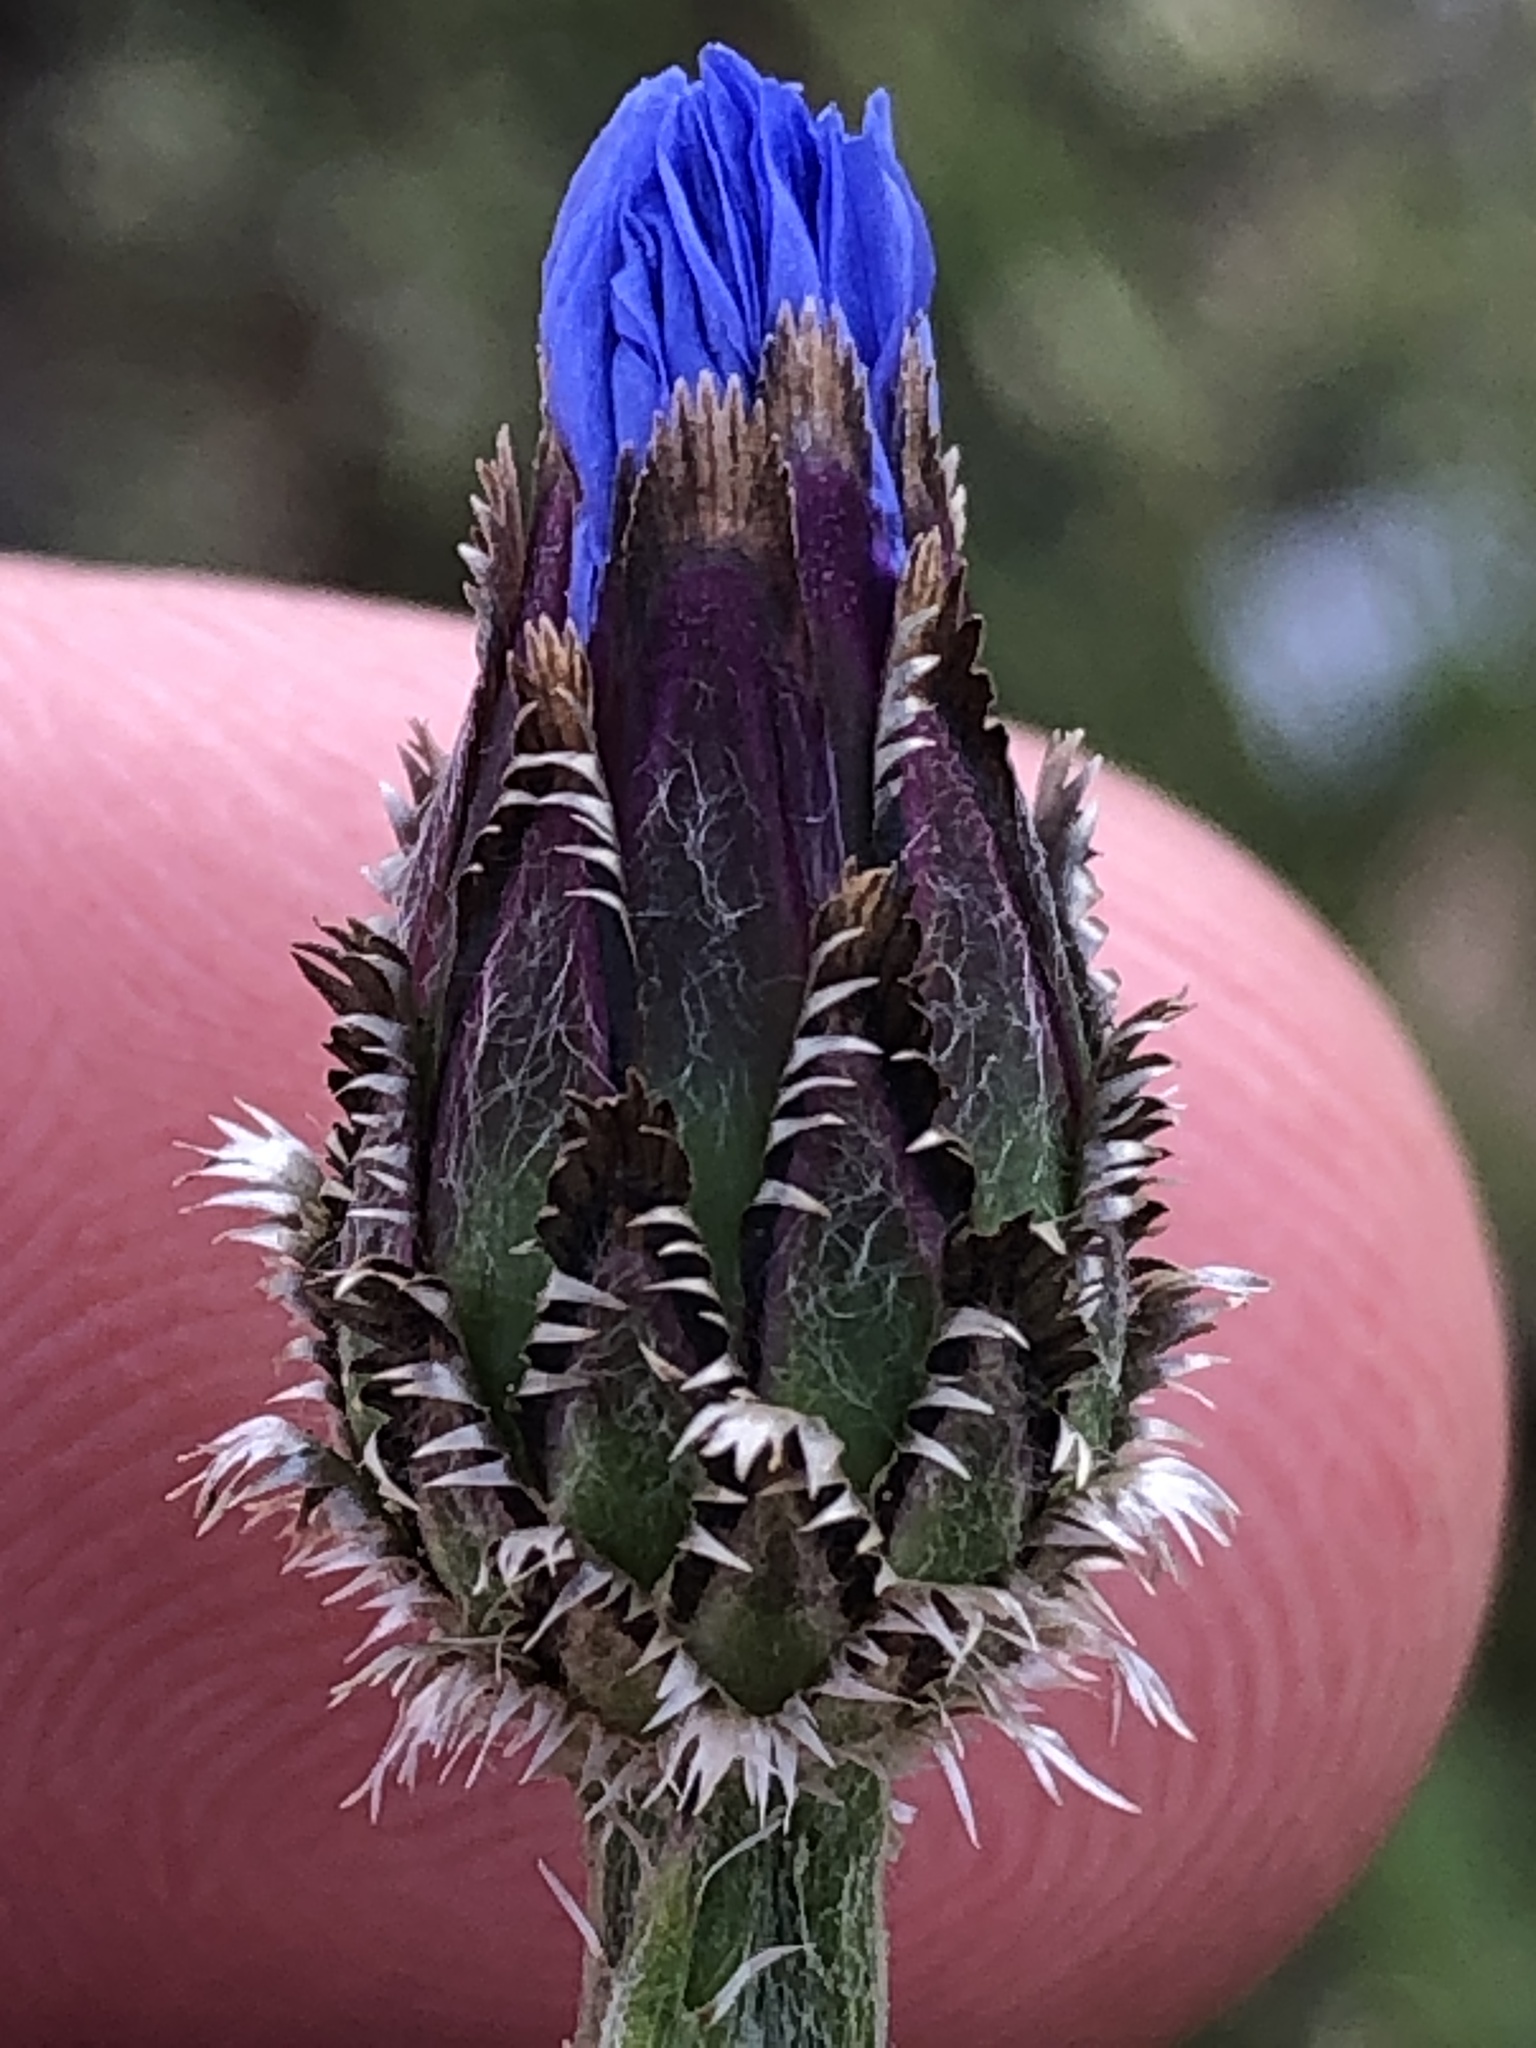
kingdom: Plantae
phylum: Tracheophyta
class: Magnoliopsida
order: Asterales
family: Asteraceae
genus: Centaurea
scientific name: Centaurea cyanus
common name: Cornflower
